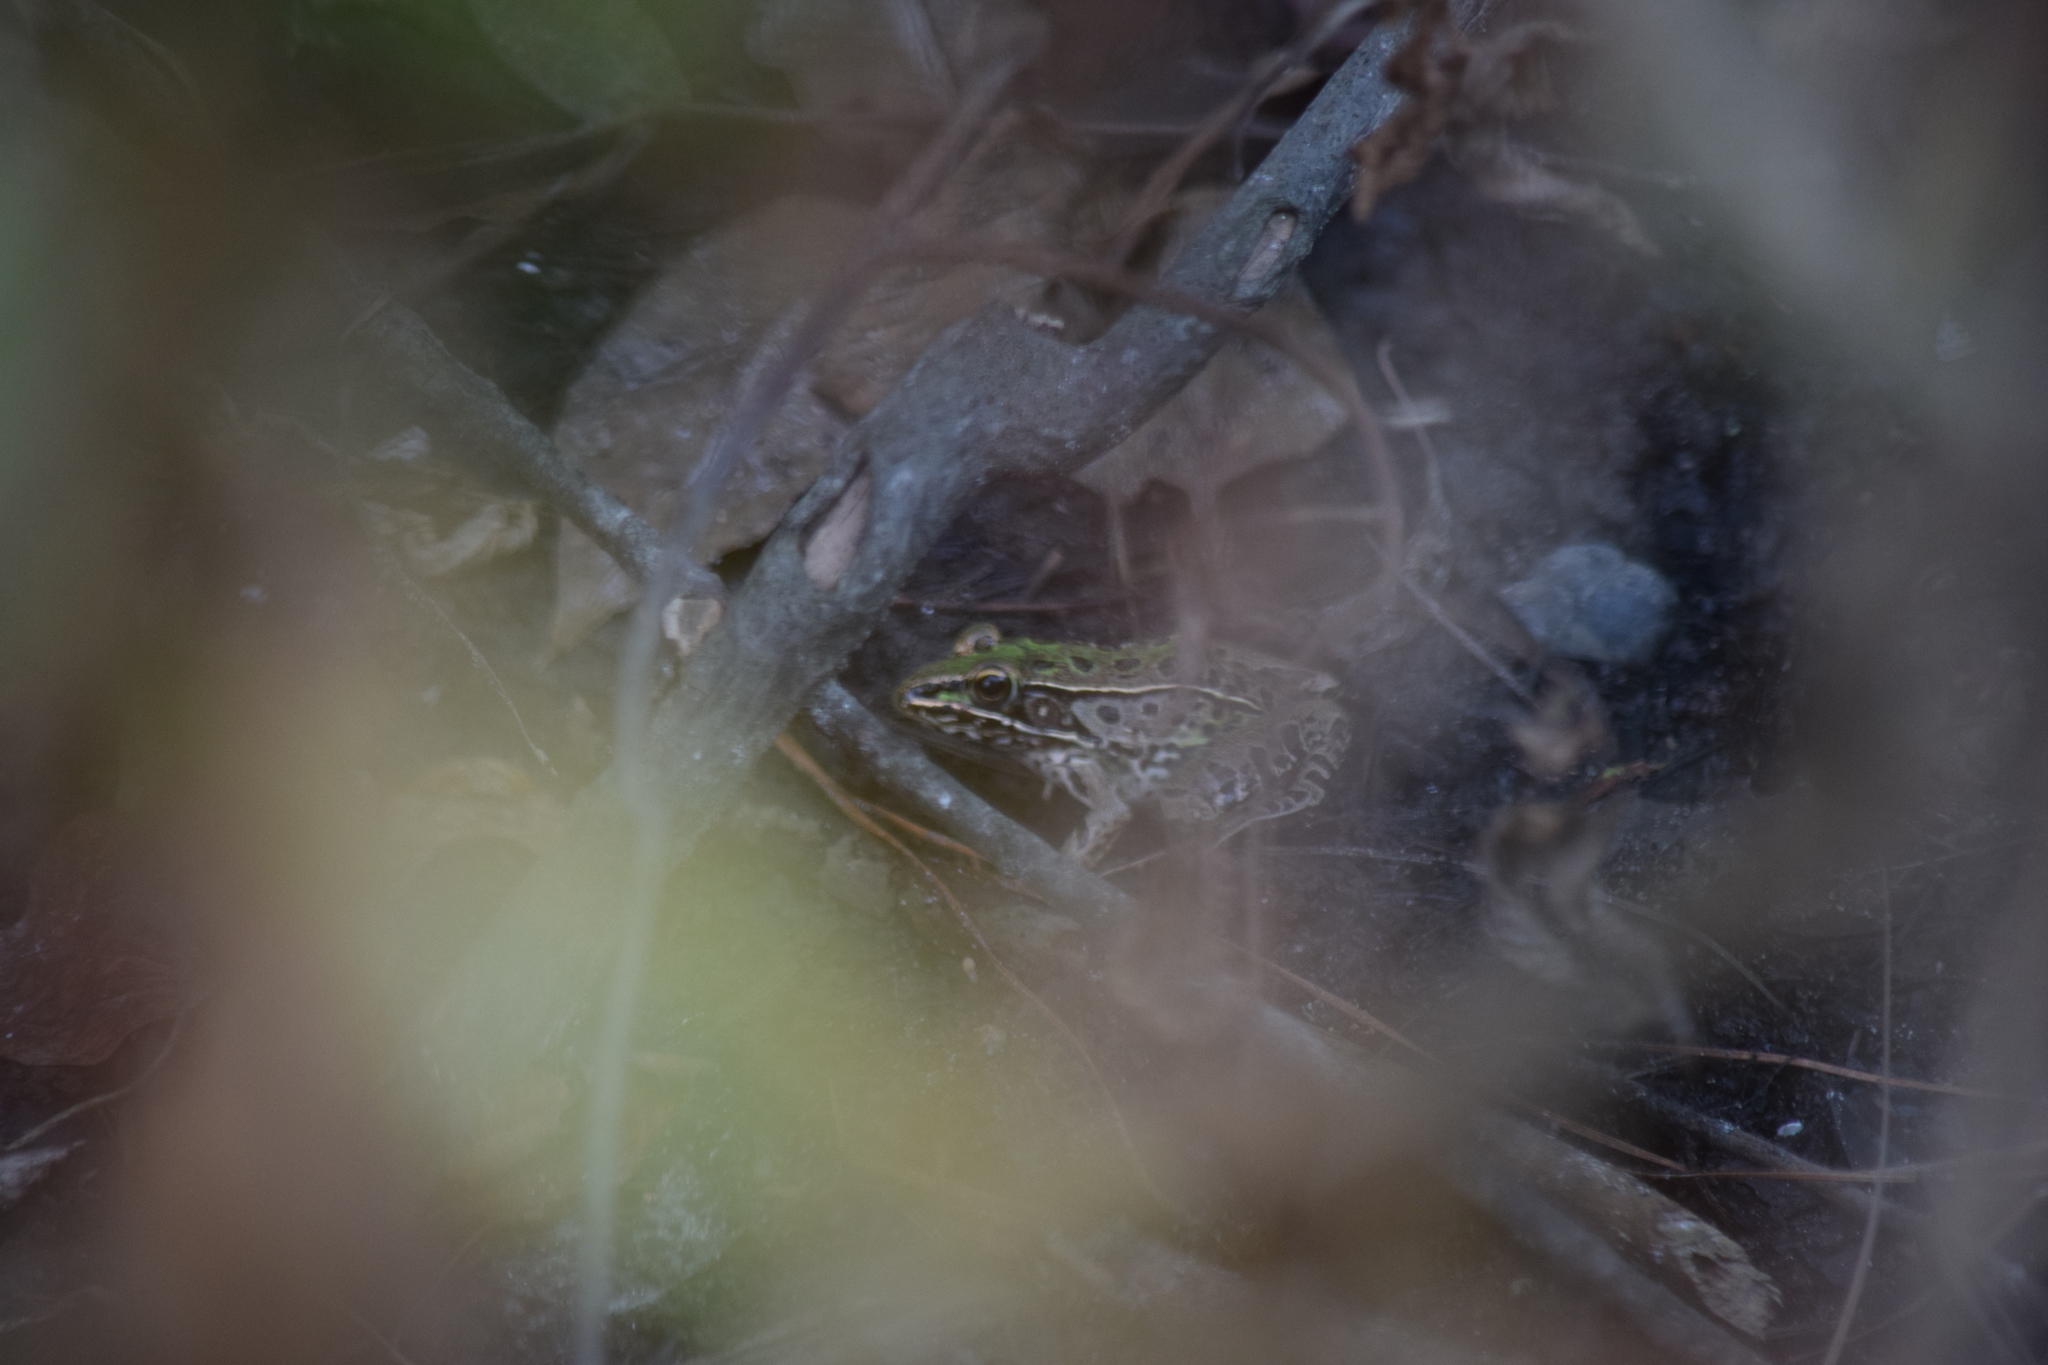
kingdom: Animalia
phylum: Chordata
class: Amphibia
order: Anura
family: Ranidae
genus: Lithobates
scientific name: Lithobates sphenocephalus
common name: Southern leopard frog
